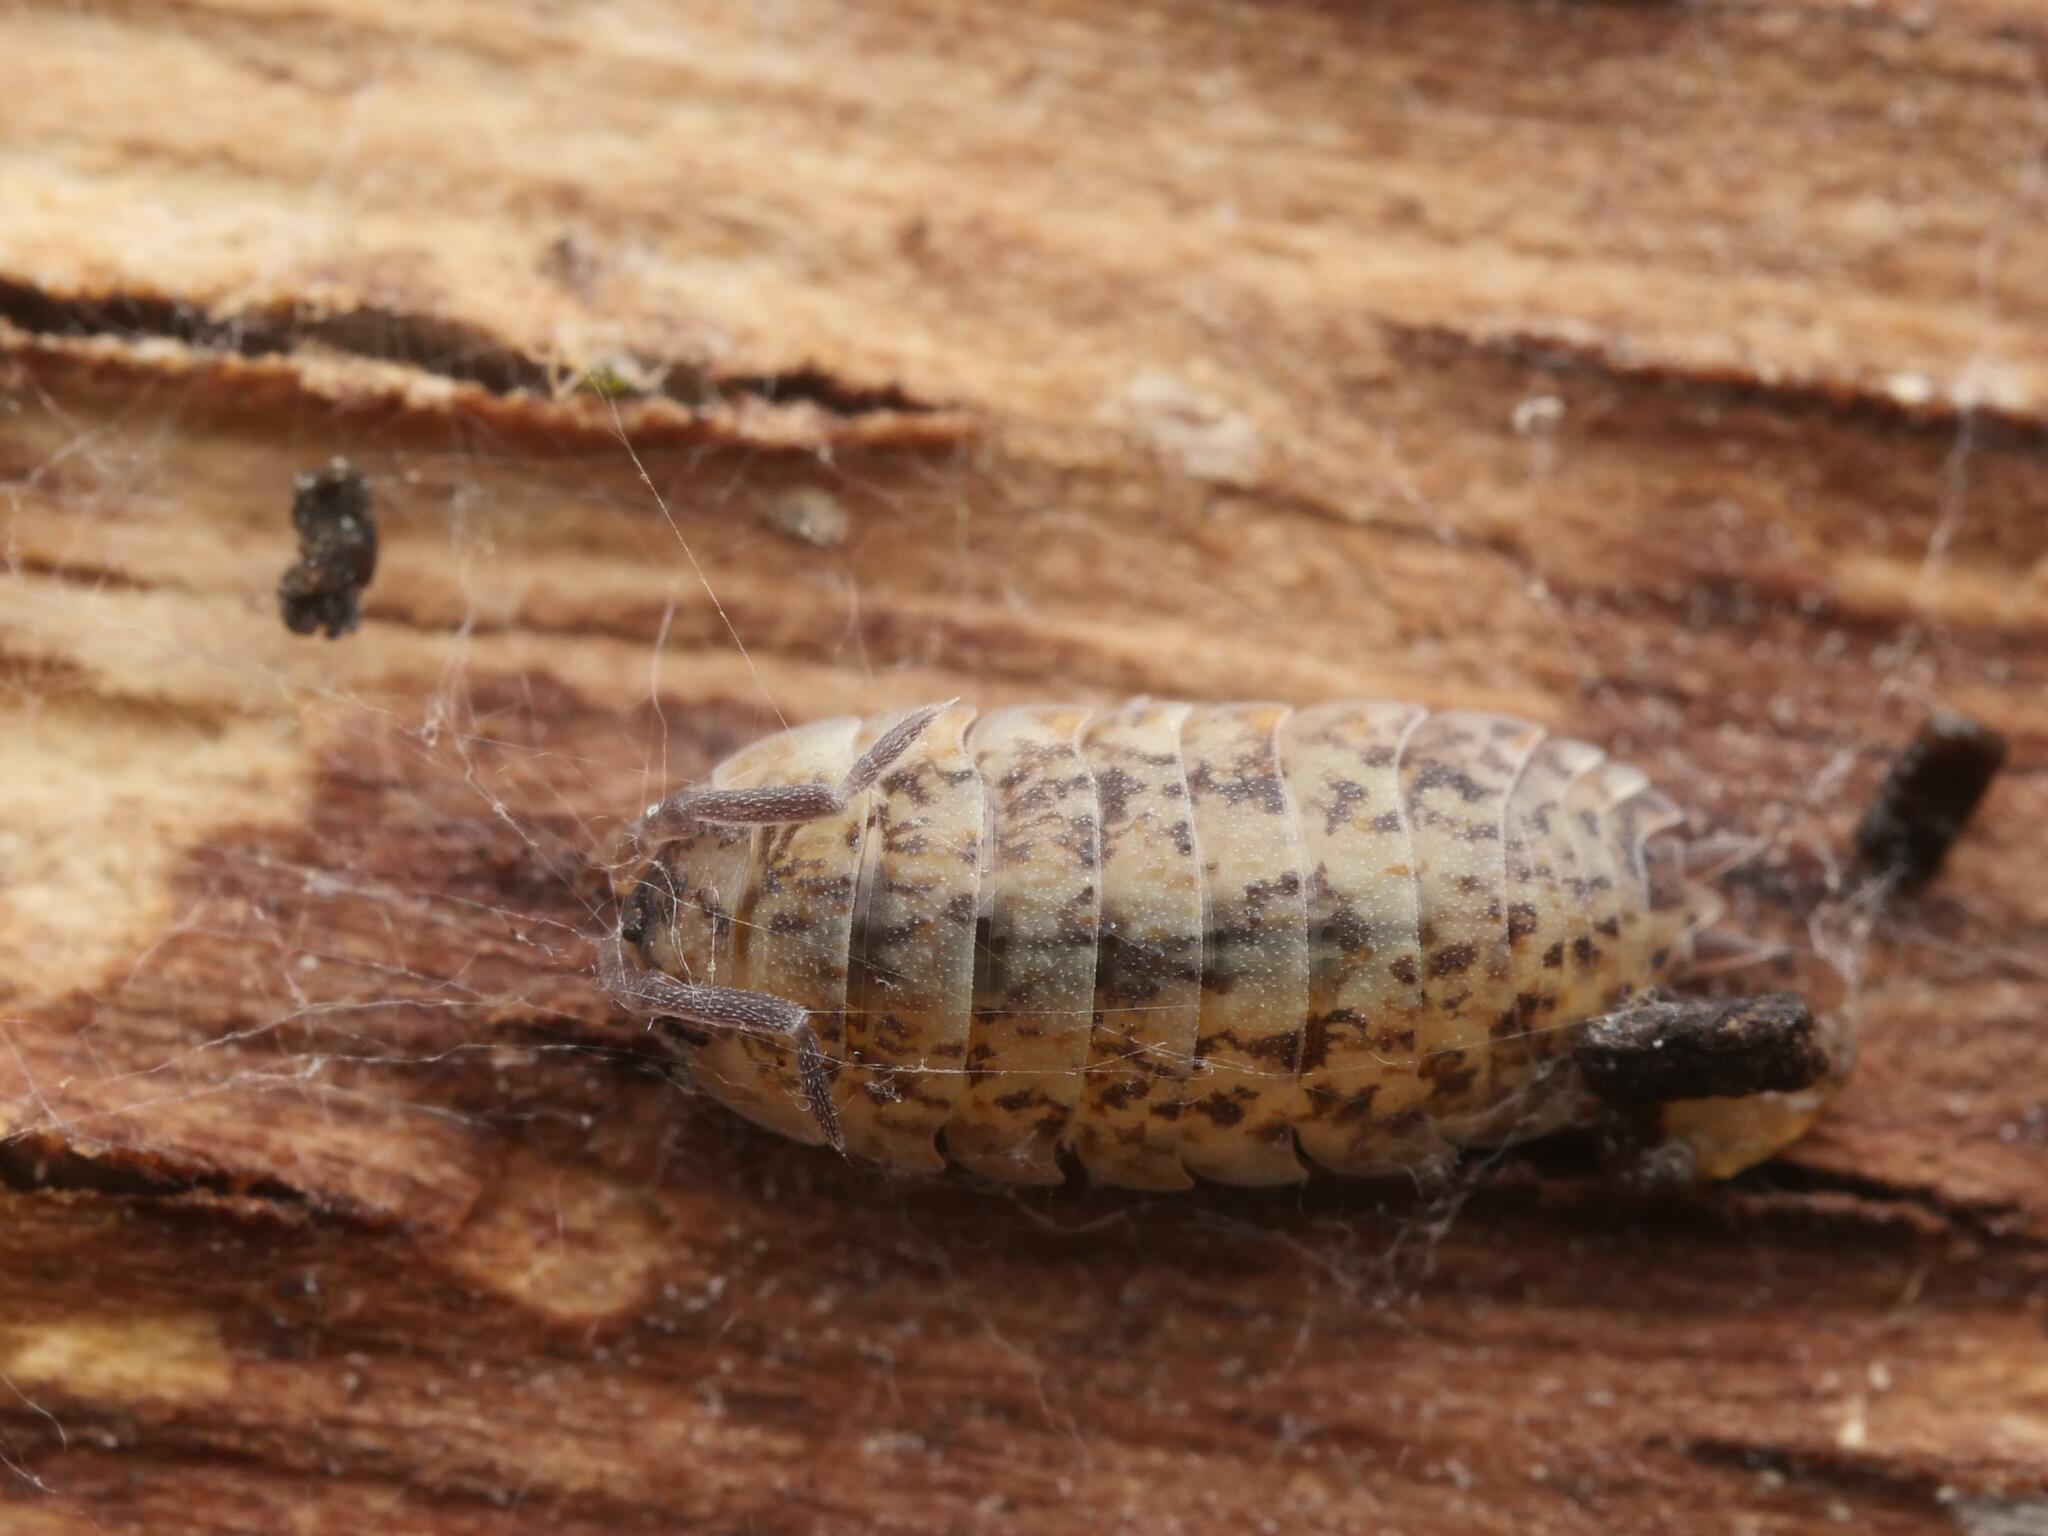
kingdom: Animalia
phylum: Arthropoda
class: Malacostraca
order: Isopoda
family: Porcellionidae
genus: Porcellio
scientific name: Porcellio scaber
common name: Common rough woodlouse
